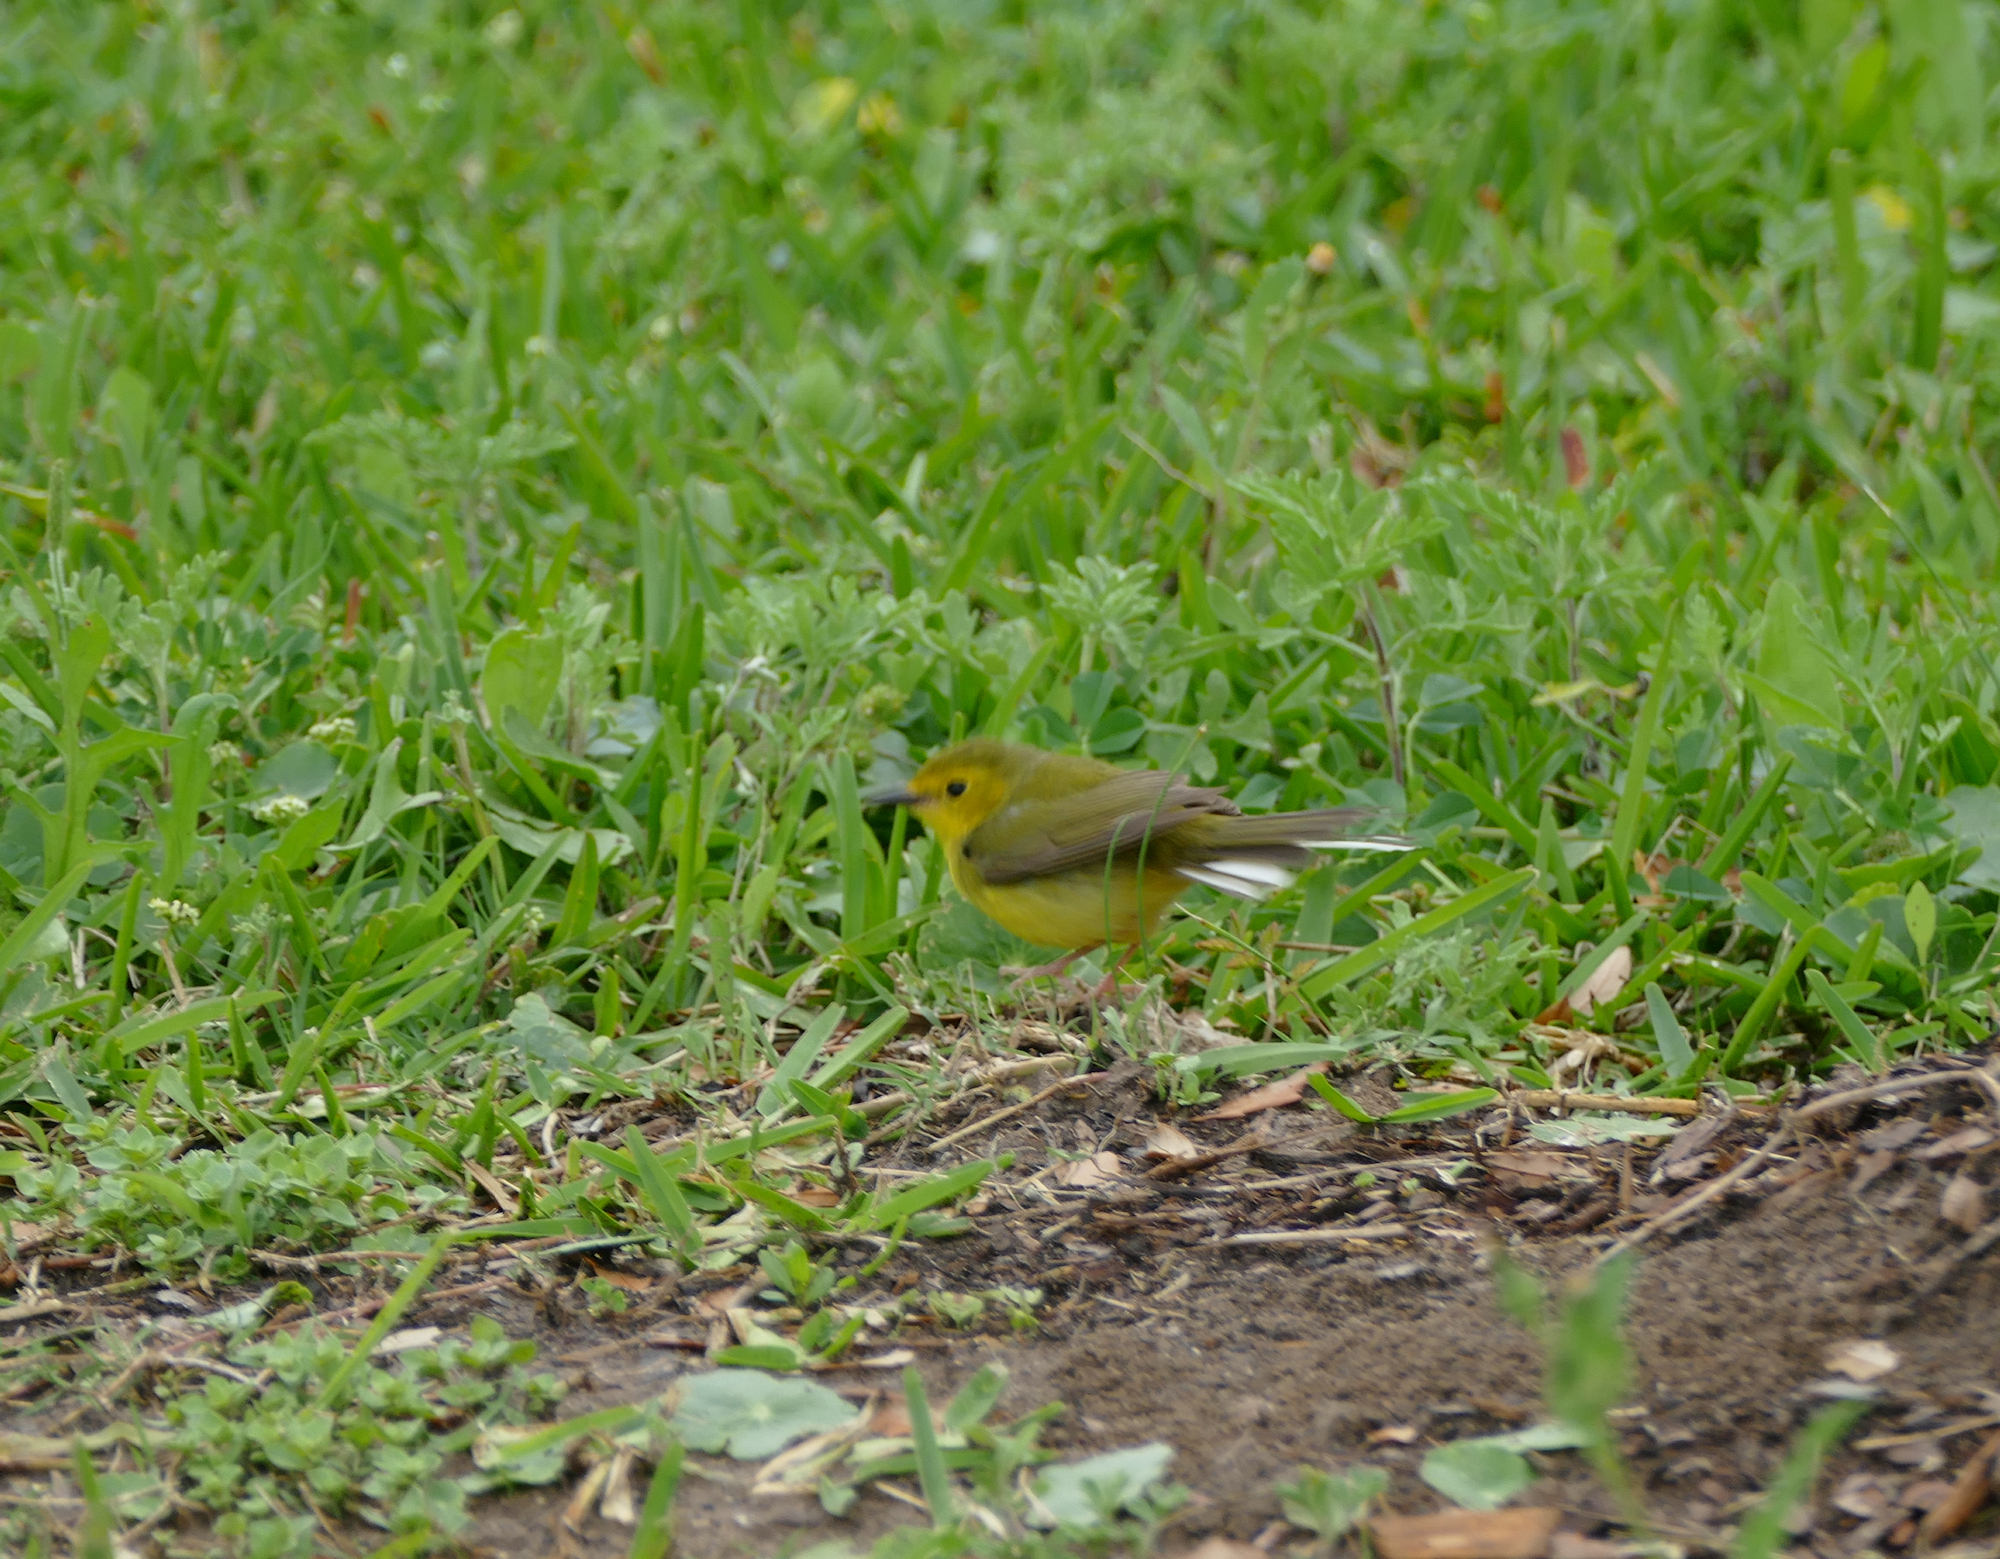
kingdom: Animalia
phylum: Chordata
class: Aves
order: Passeriformes
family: Parulidae
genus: Setophaga
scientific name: Setophaga citrina
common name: Hooded warbler
